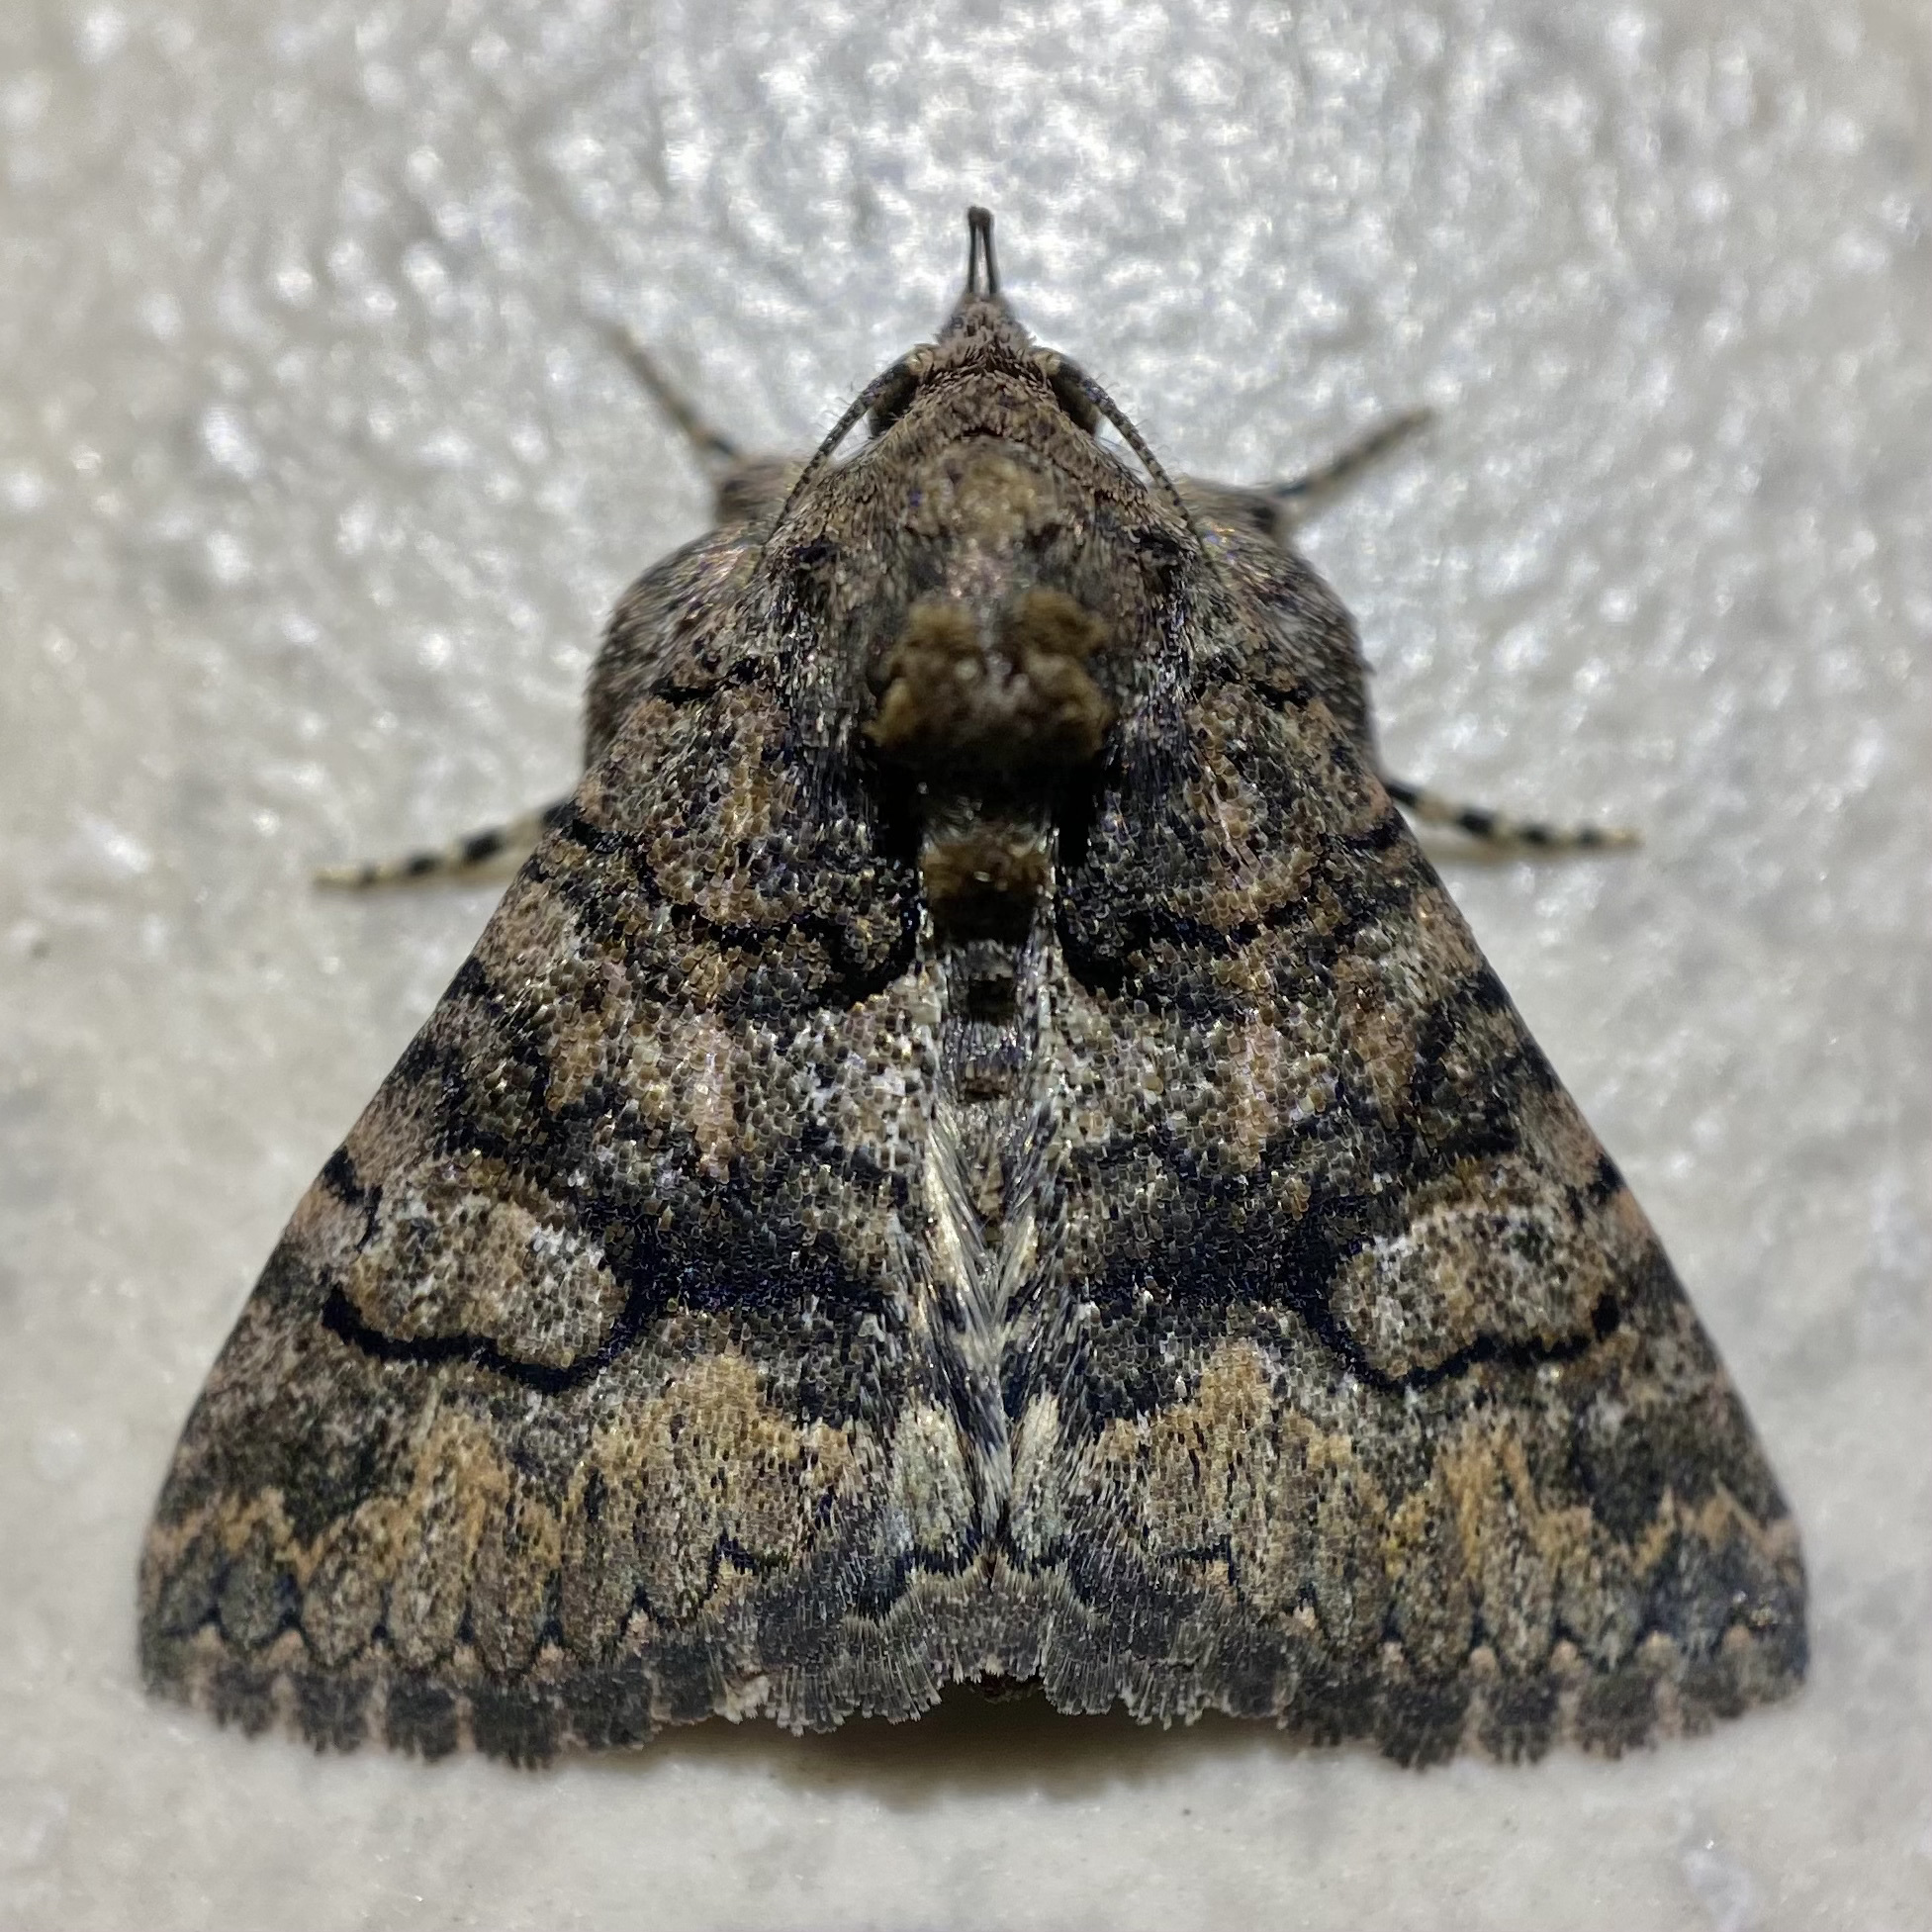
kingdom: Animalia
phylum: Arthropoda
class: Insecta
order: Lepidoptera
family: Erebidae
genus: Elousa
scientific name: Elousa mima
